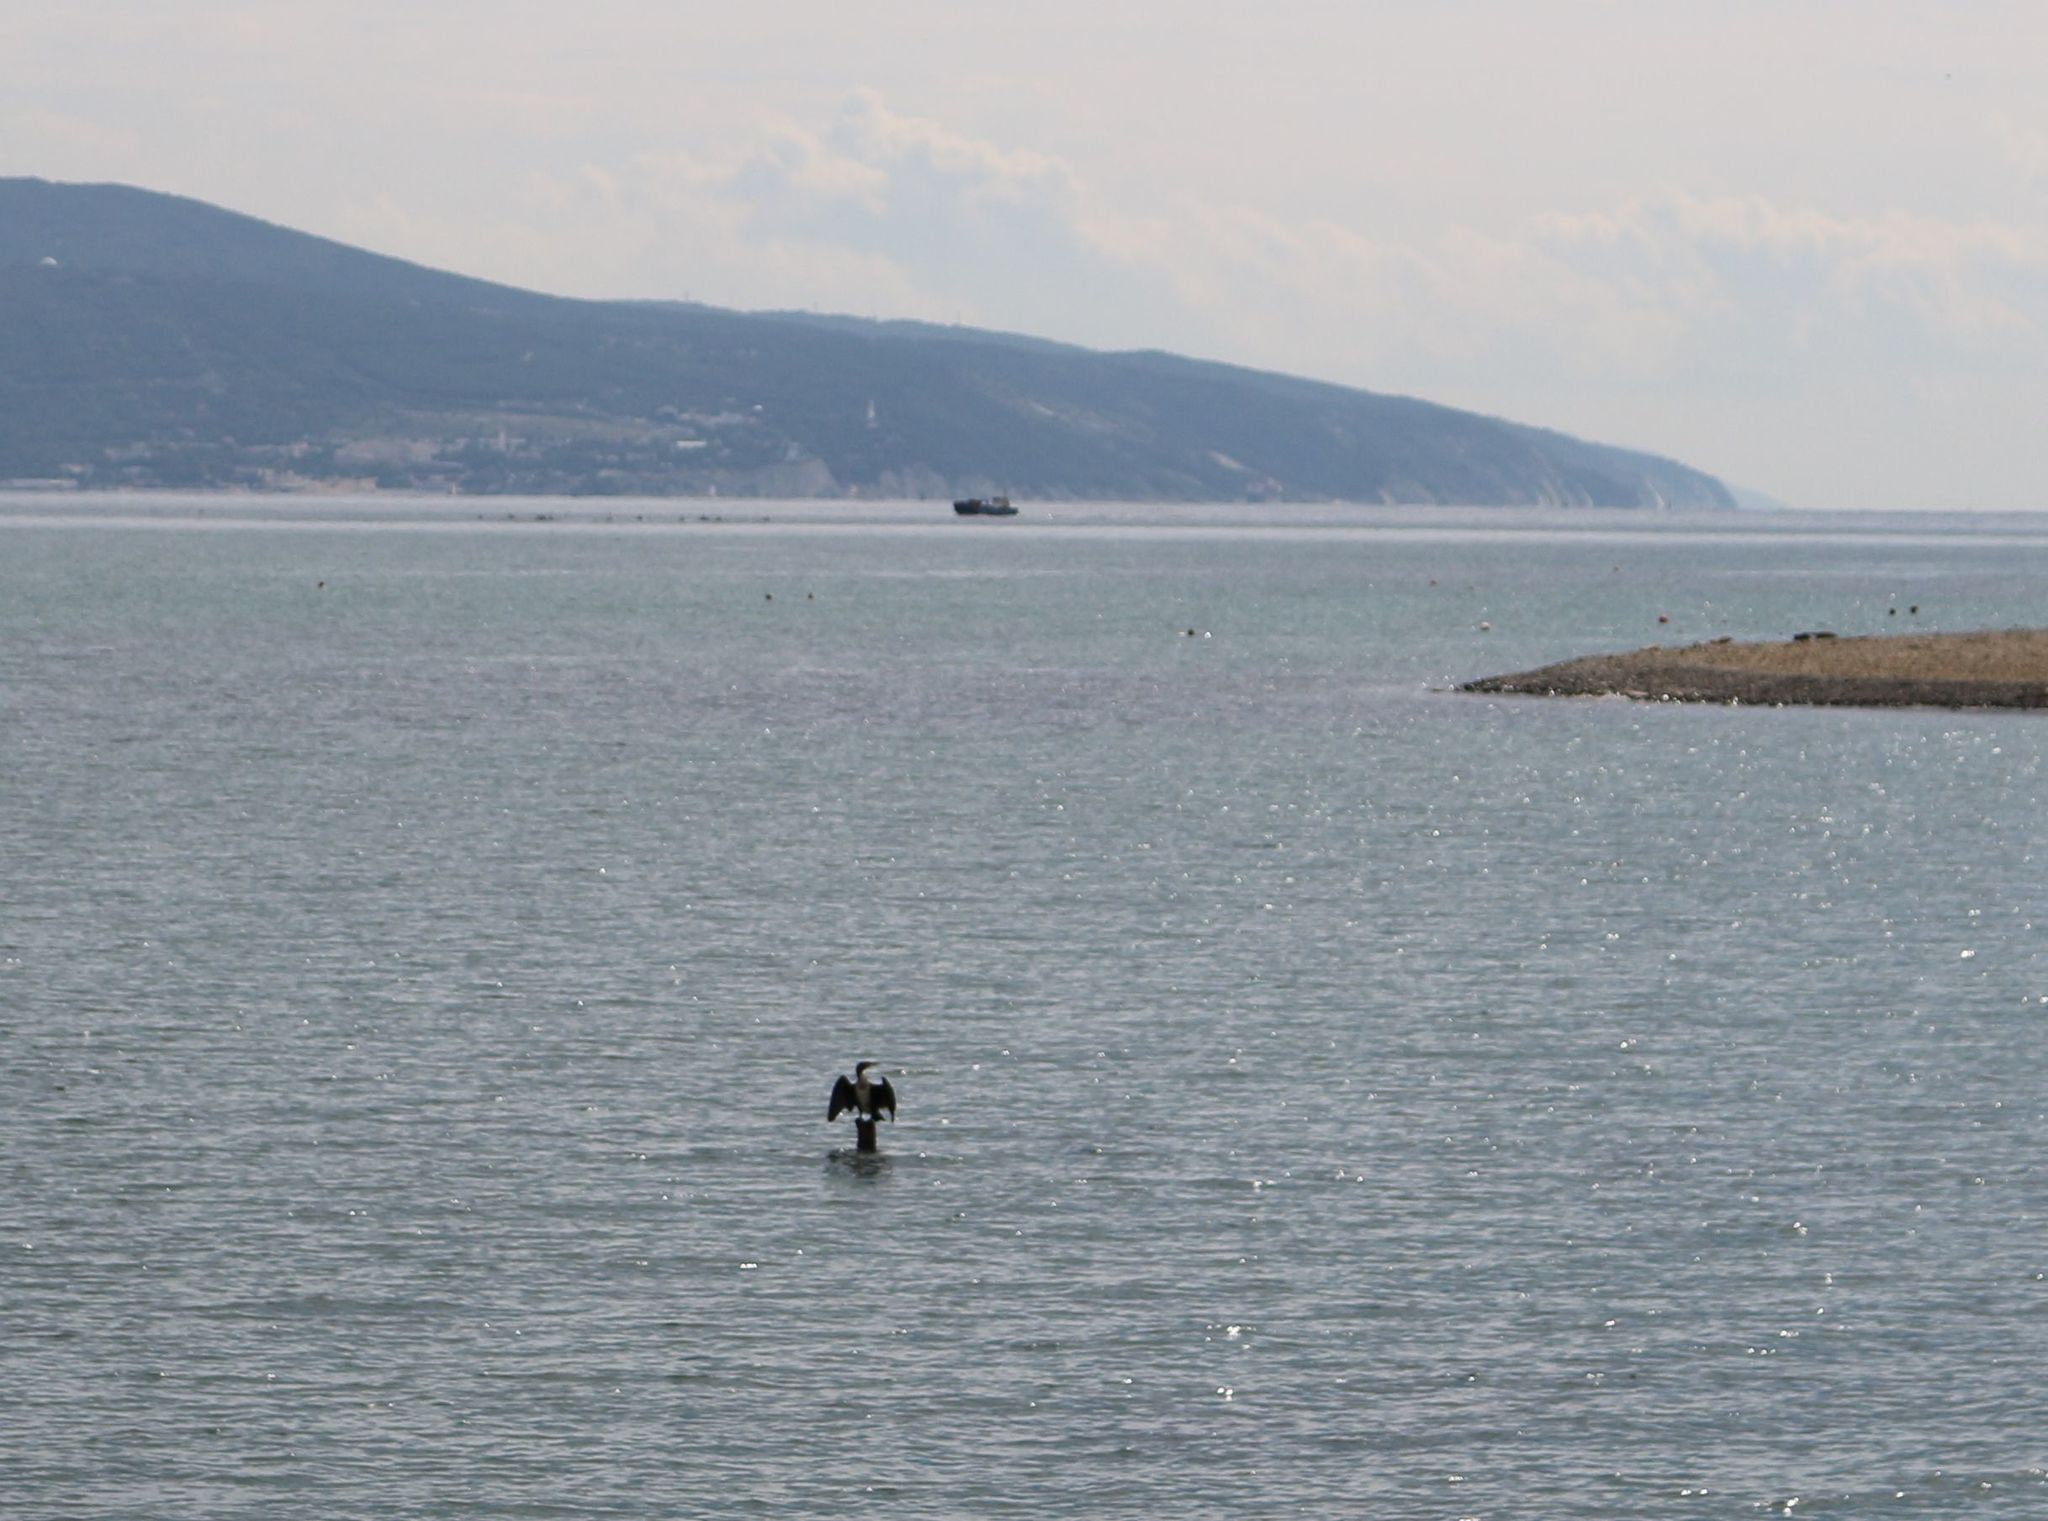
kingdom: Animalia
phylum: Chordata
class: Aves
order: Suliformes
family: Phalacrocoracidae
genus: Phalacrocorax
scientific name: Phalacrocorax carbo
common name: Great cormorant
